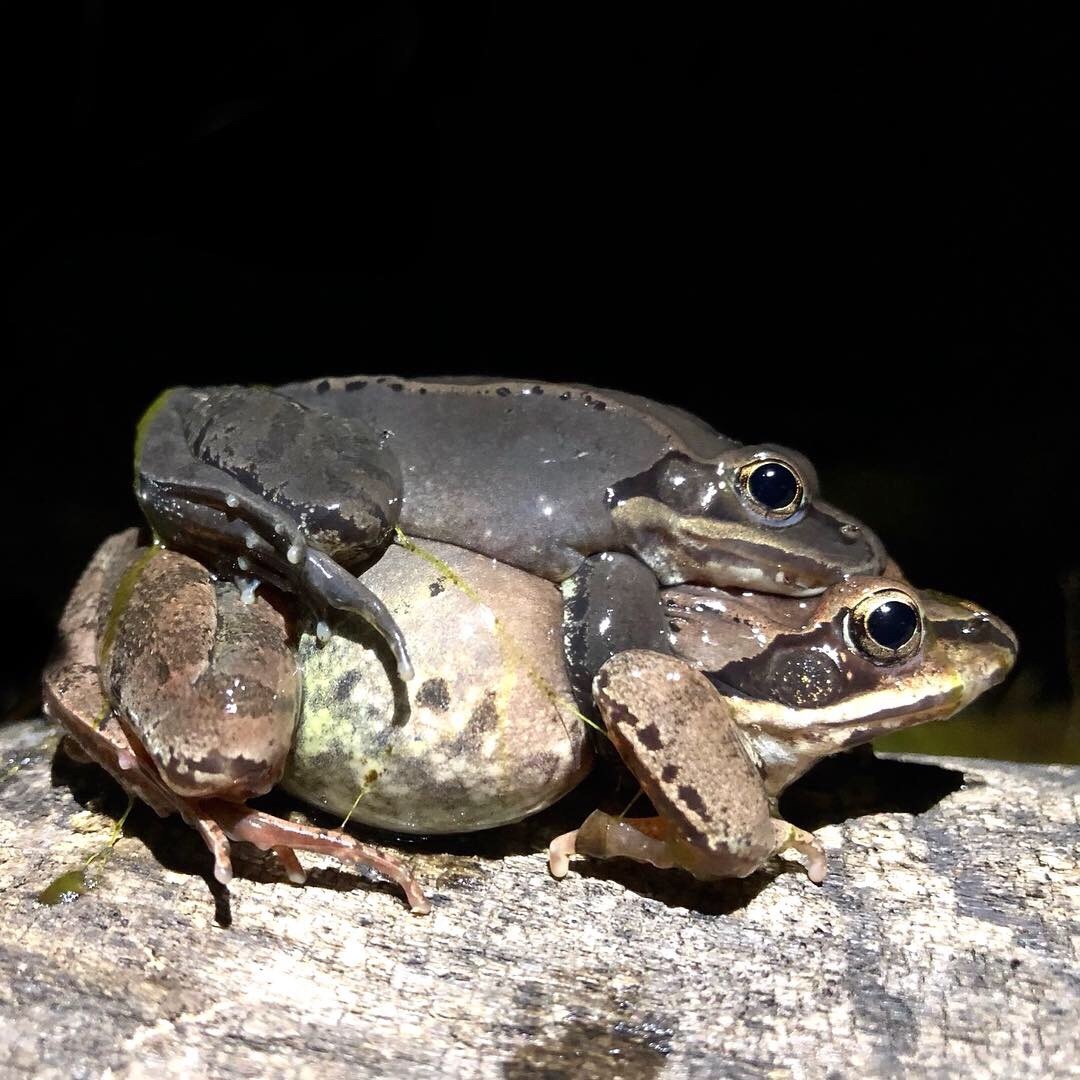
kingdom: Animalia
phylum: Chordata
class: Amphibia
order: Anura
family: Ranidae
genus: Lithobates
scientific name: Lithobates sylvaticus
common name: Wood frog
